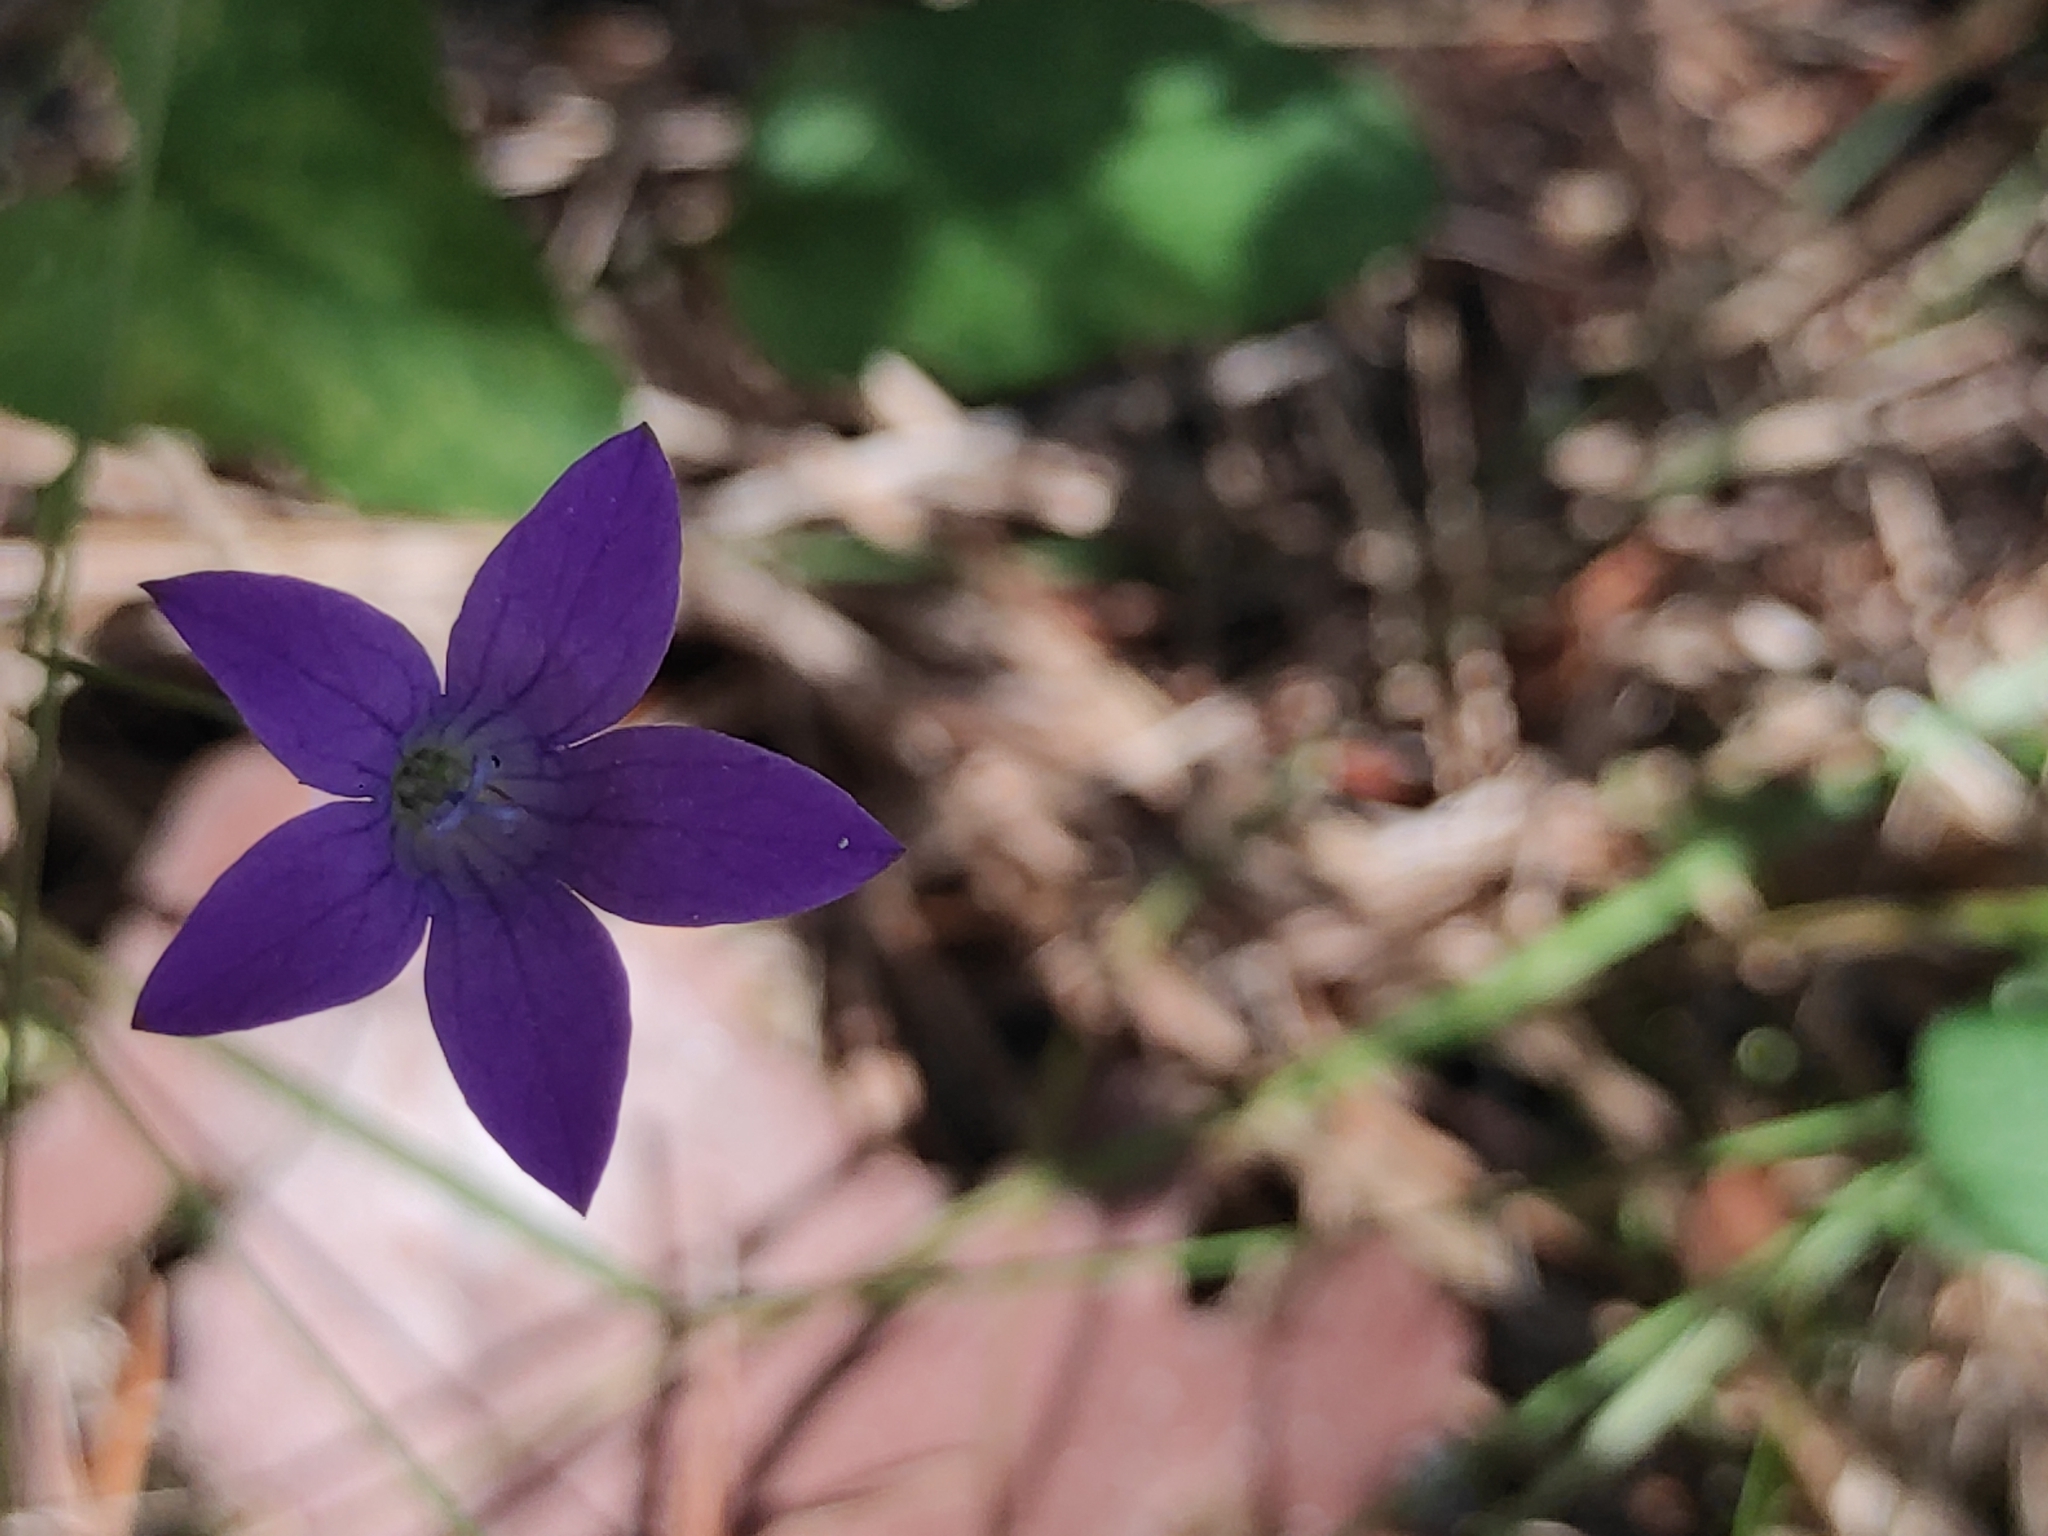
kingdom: Plantae
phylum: Tracheophyta
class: Magnoliopsida
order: Asterales
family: Campanulaceae
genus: Campanula
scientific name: Campanula patula
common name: Spreading bellflower
